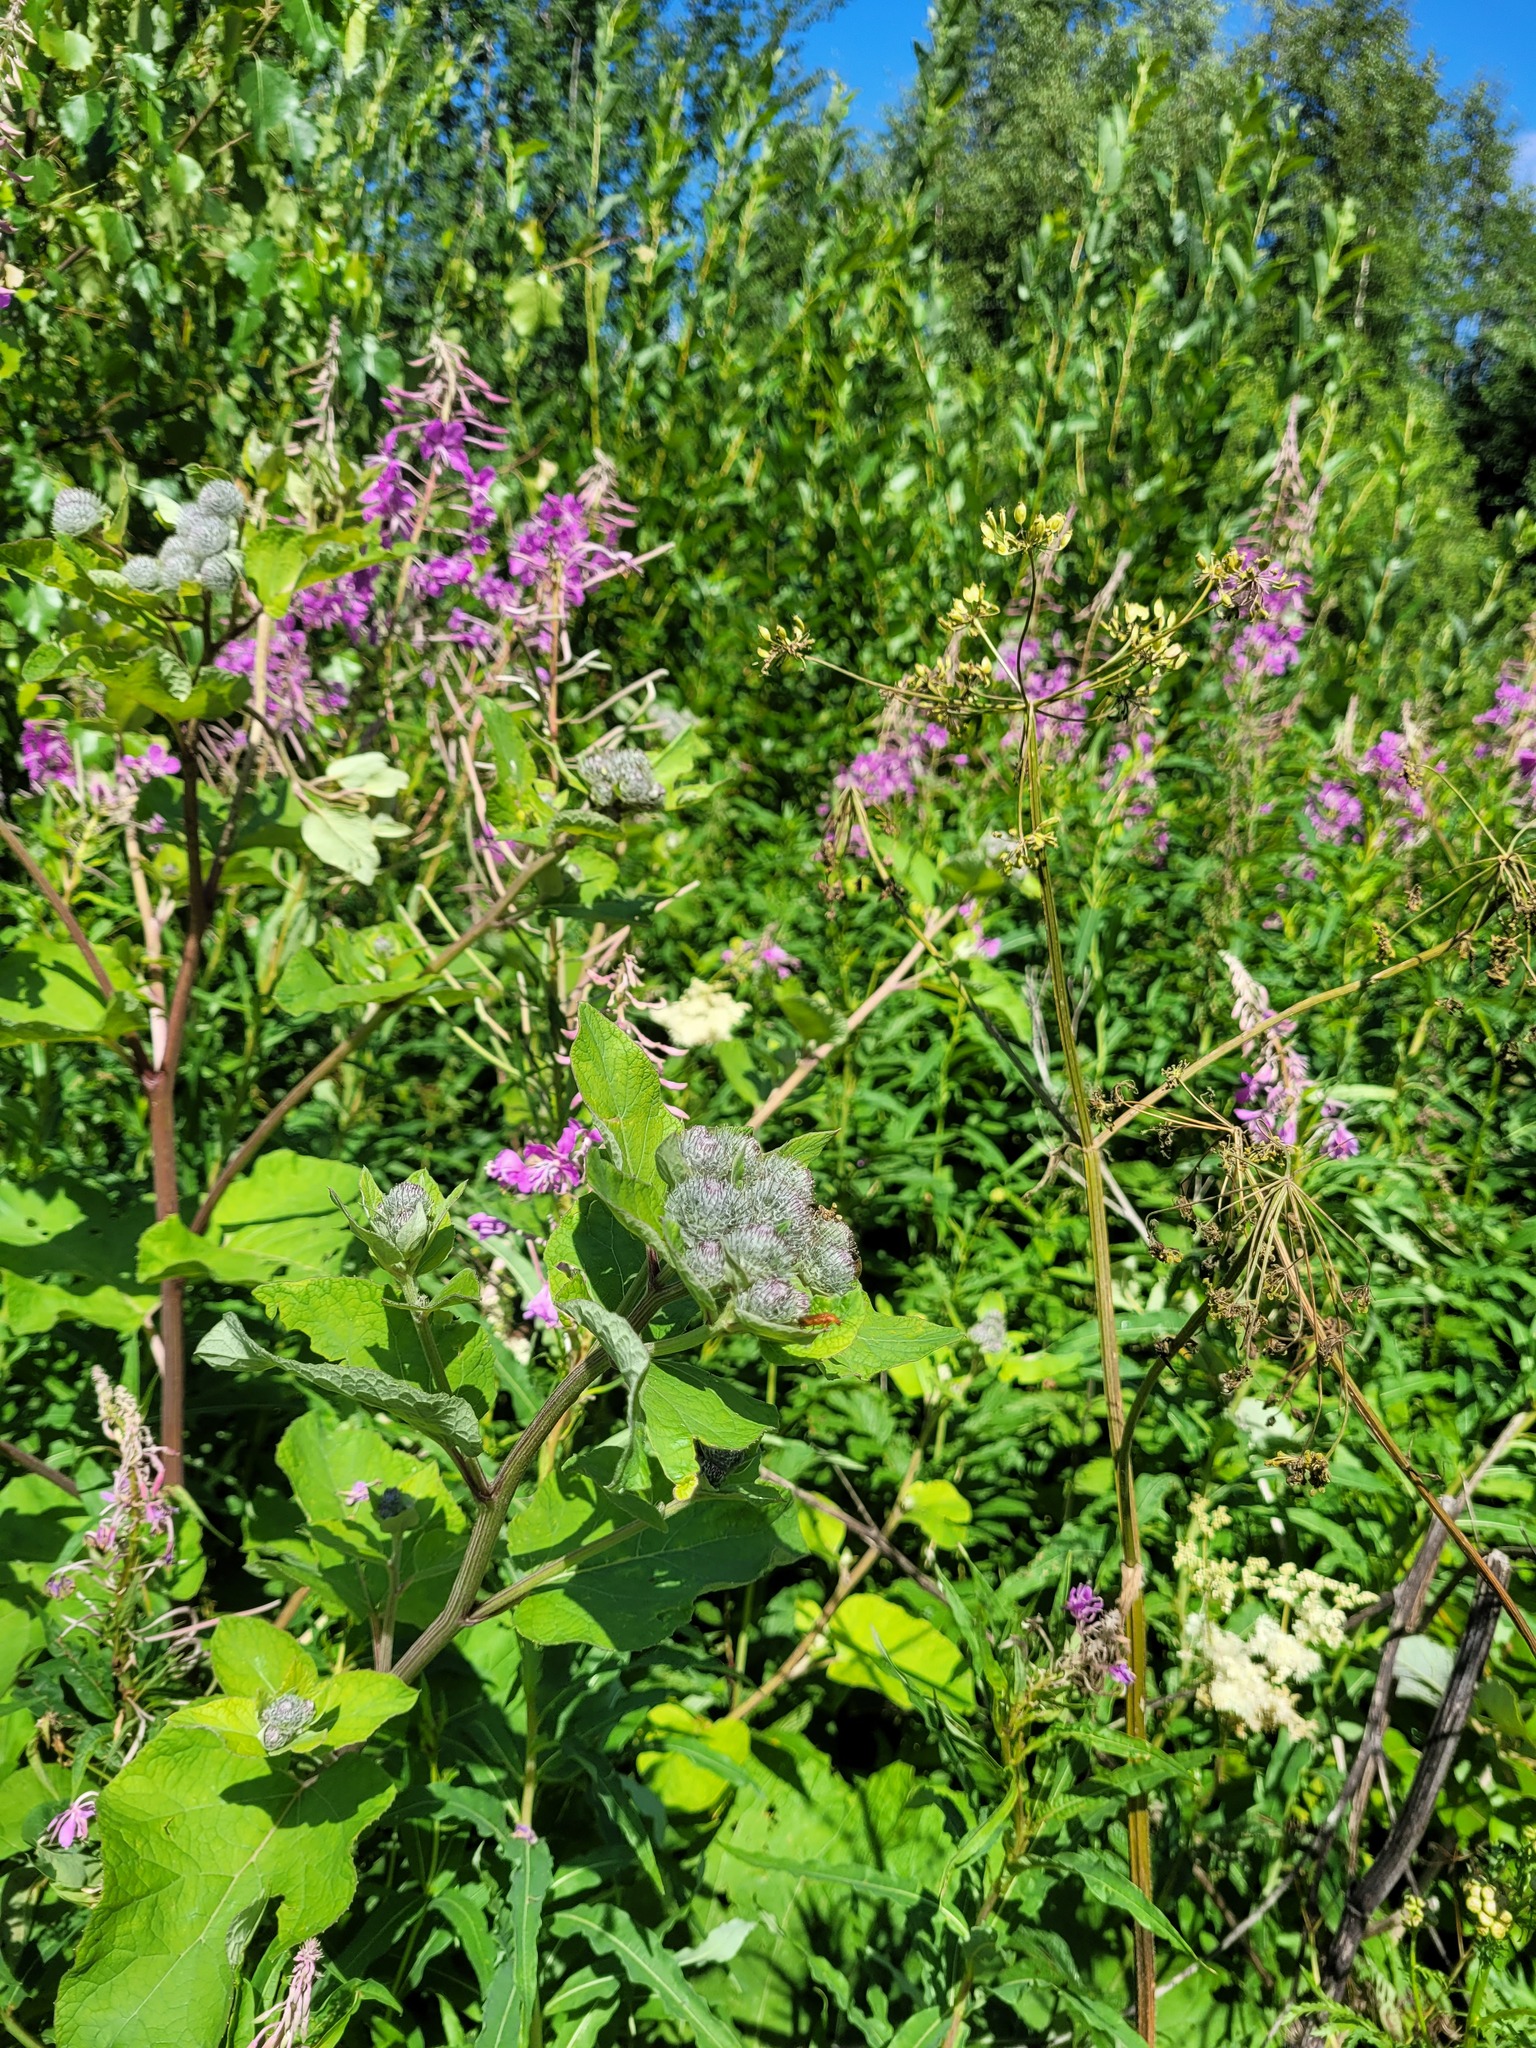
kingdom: Plantae
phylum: Tracheophyta
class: Magnoliopsida
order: Asterales
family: Asteraceae
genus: Arctium
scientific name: Arctium tomentosum
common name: Woolly burdock
